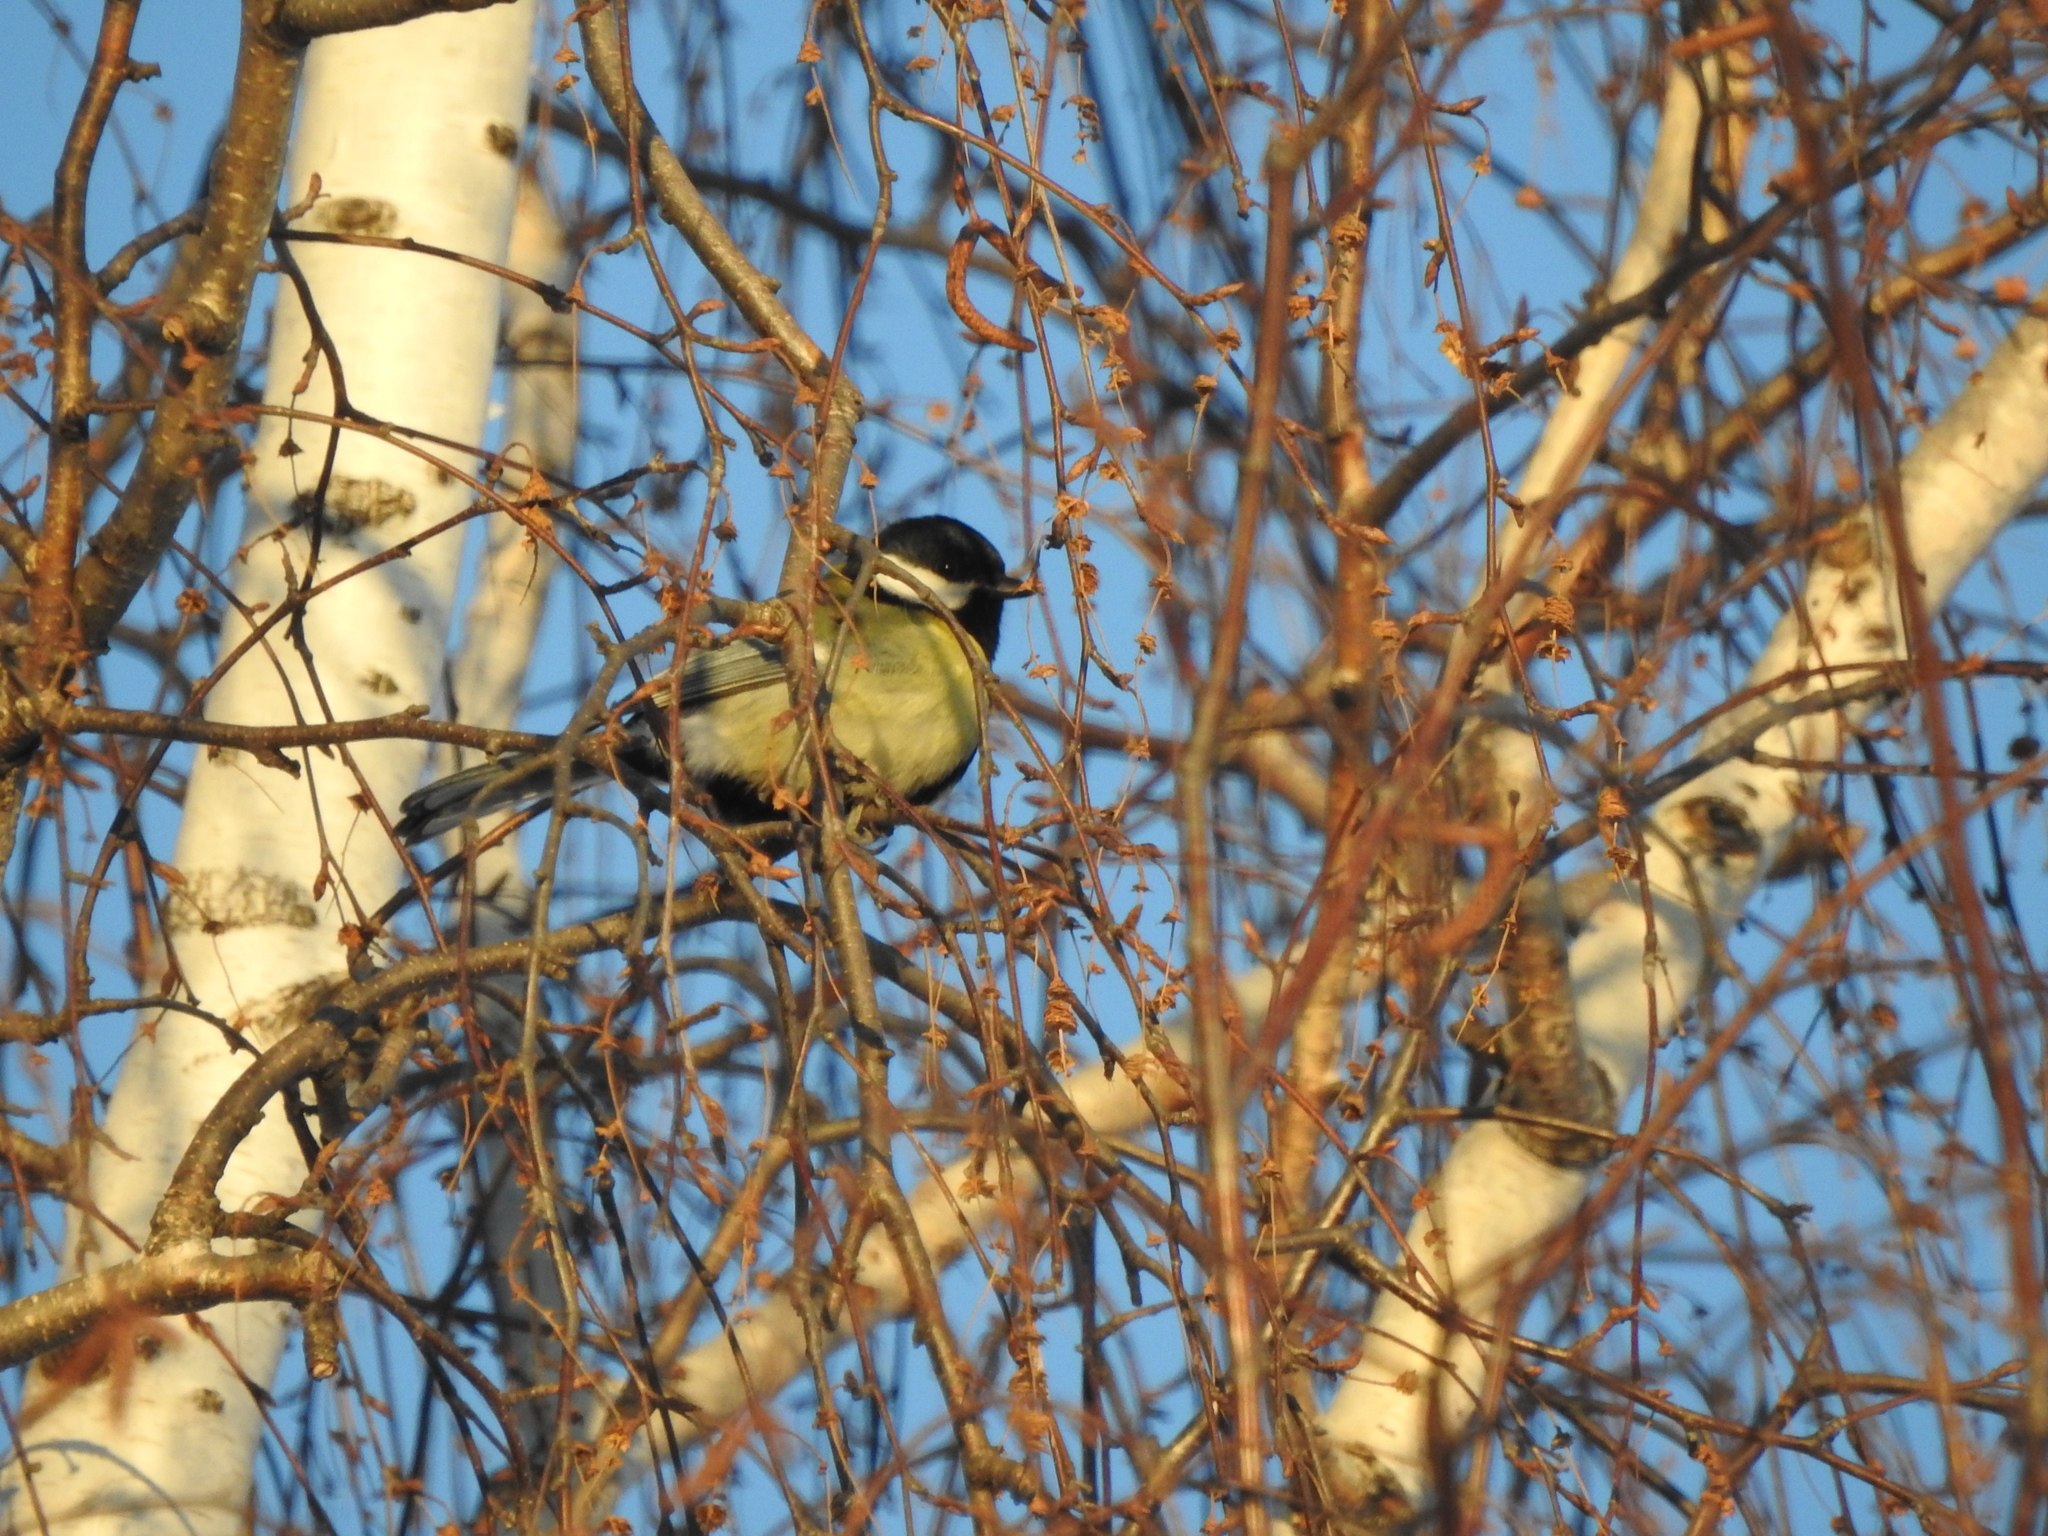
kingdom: Animalia
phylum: Chordata
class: Aves
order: Passeriformes
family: Paridae
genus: Parus
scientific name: Parus major
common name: Great tit
